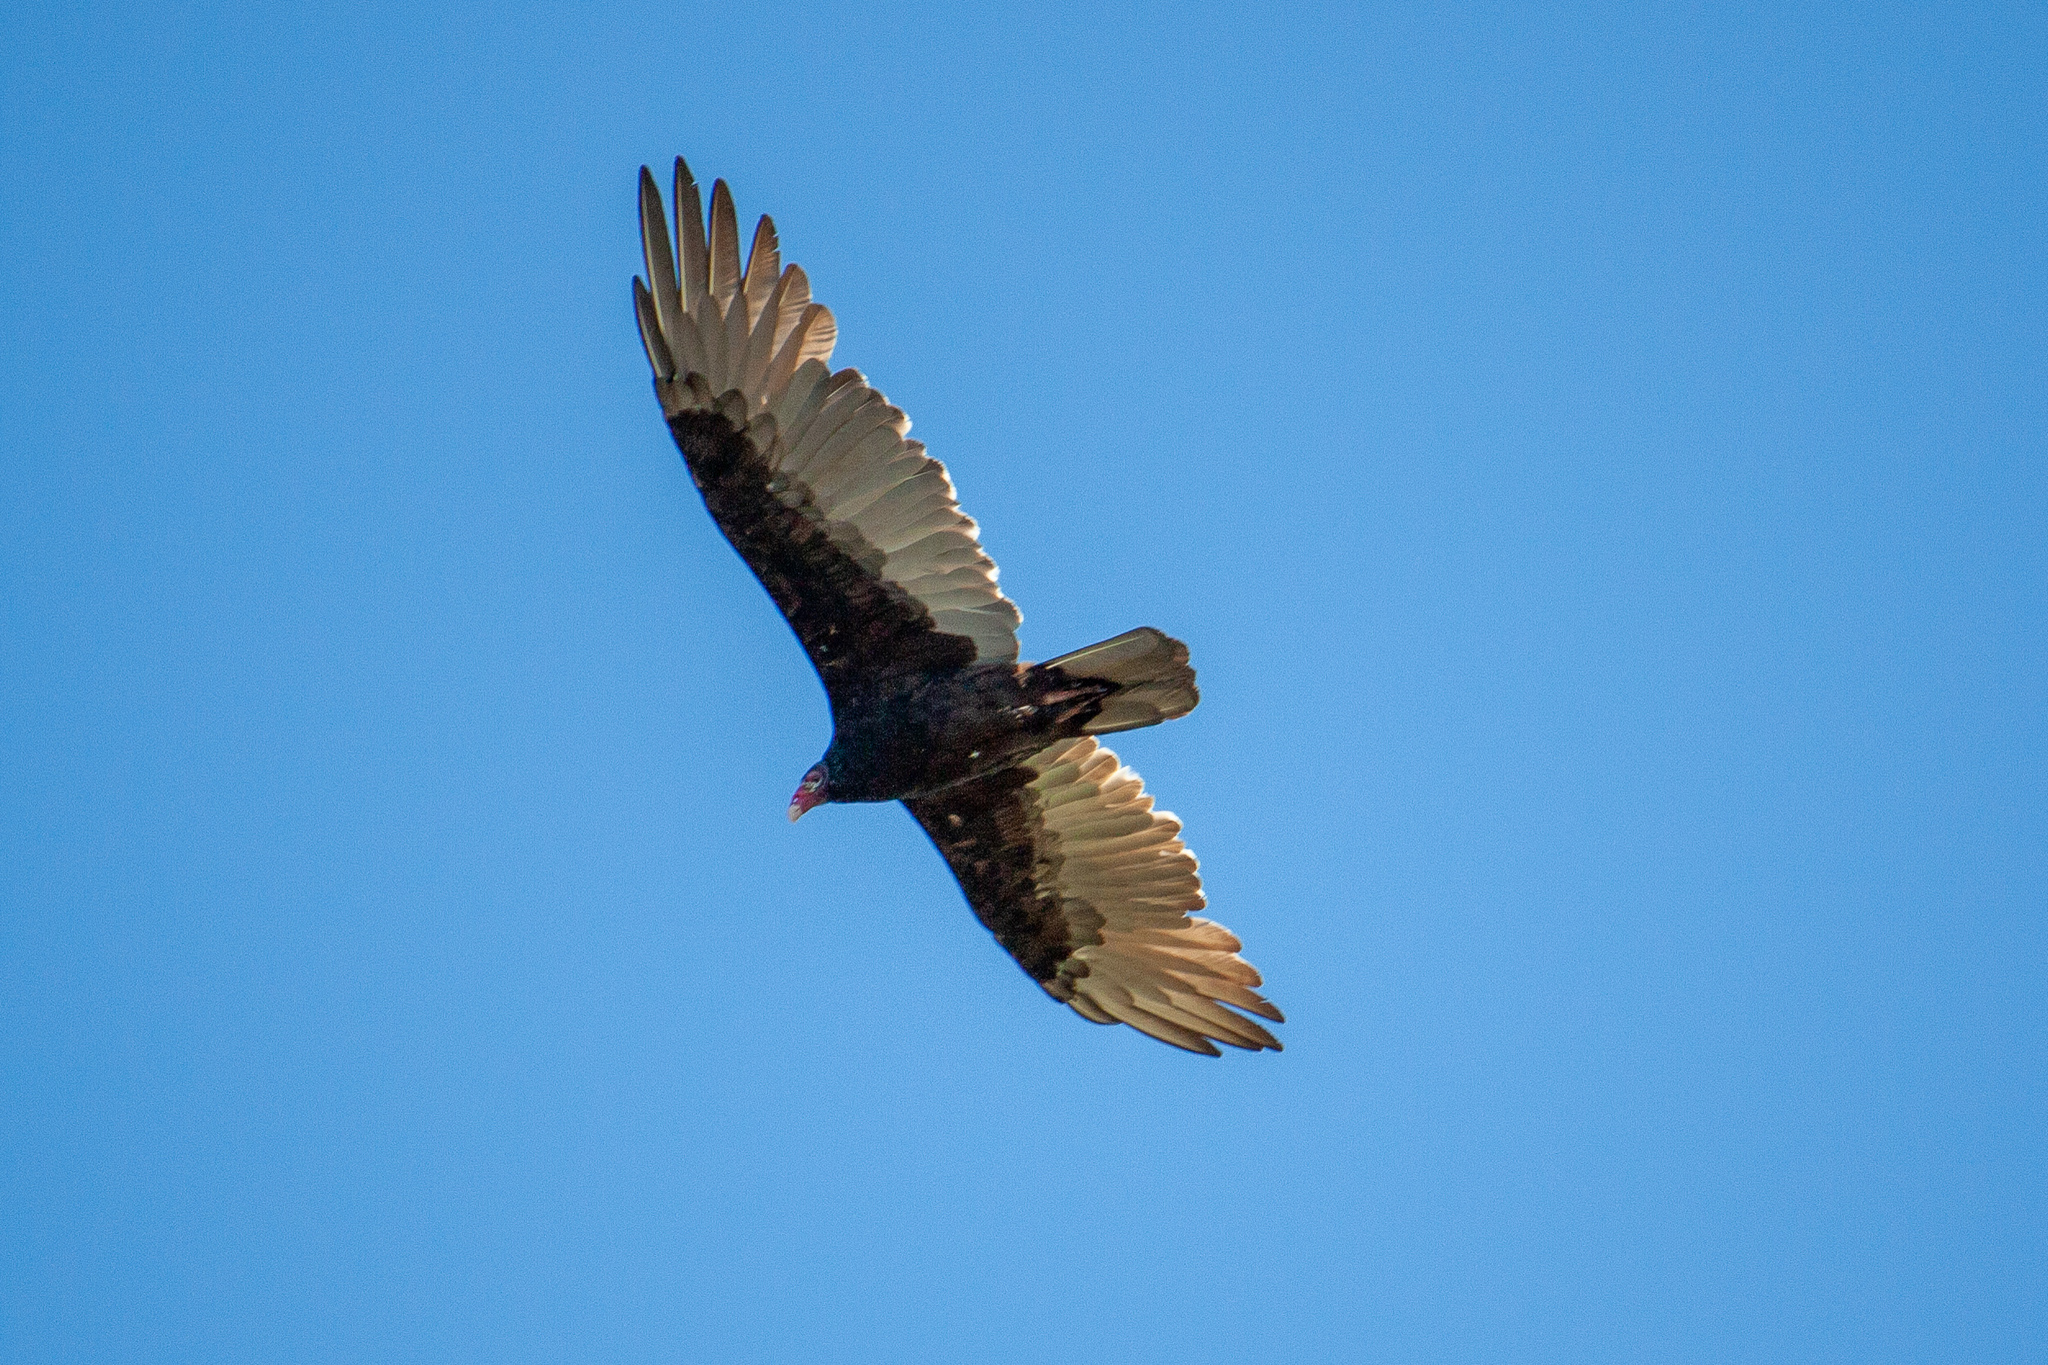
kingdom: Animalia
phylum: Chordata
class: Aves
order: Accipitriformes
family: Cathartidae
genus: Cathartes
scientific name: Cathartes aura
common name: Turkey vulture
